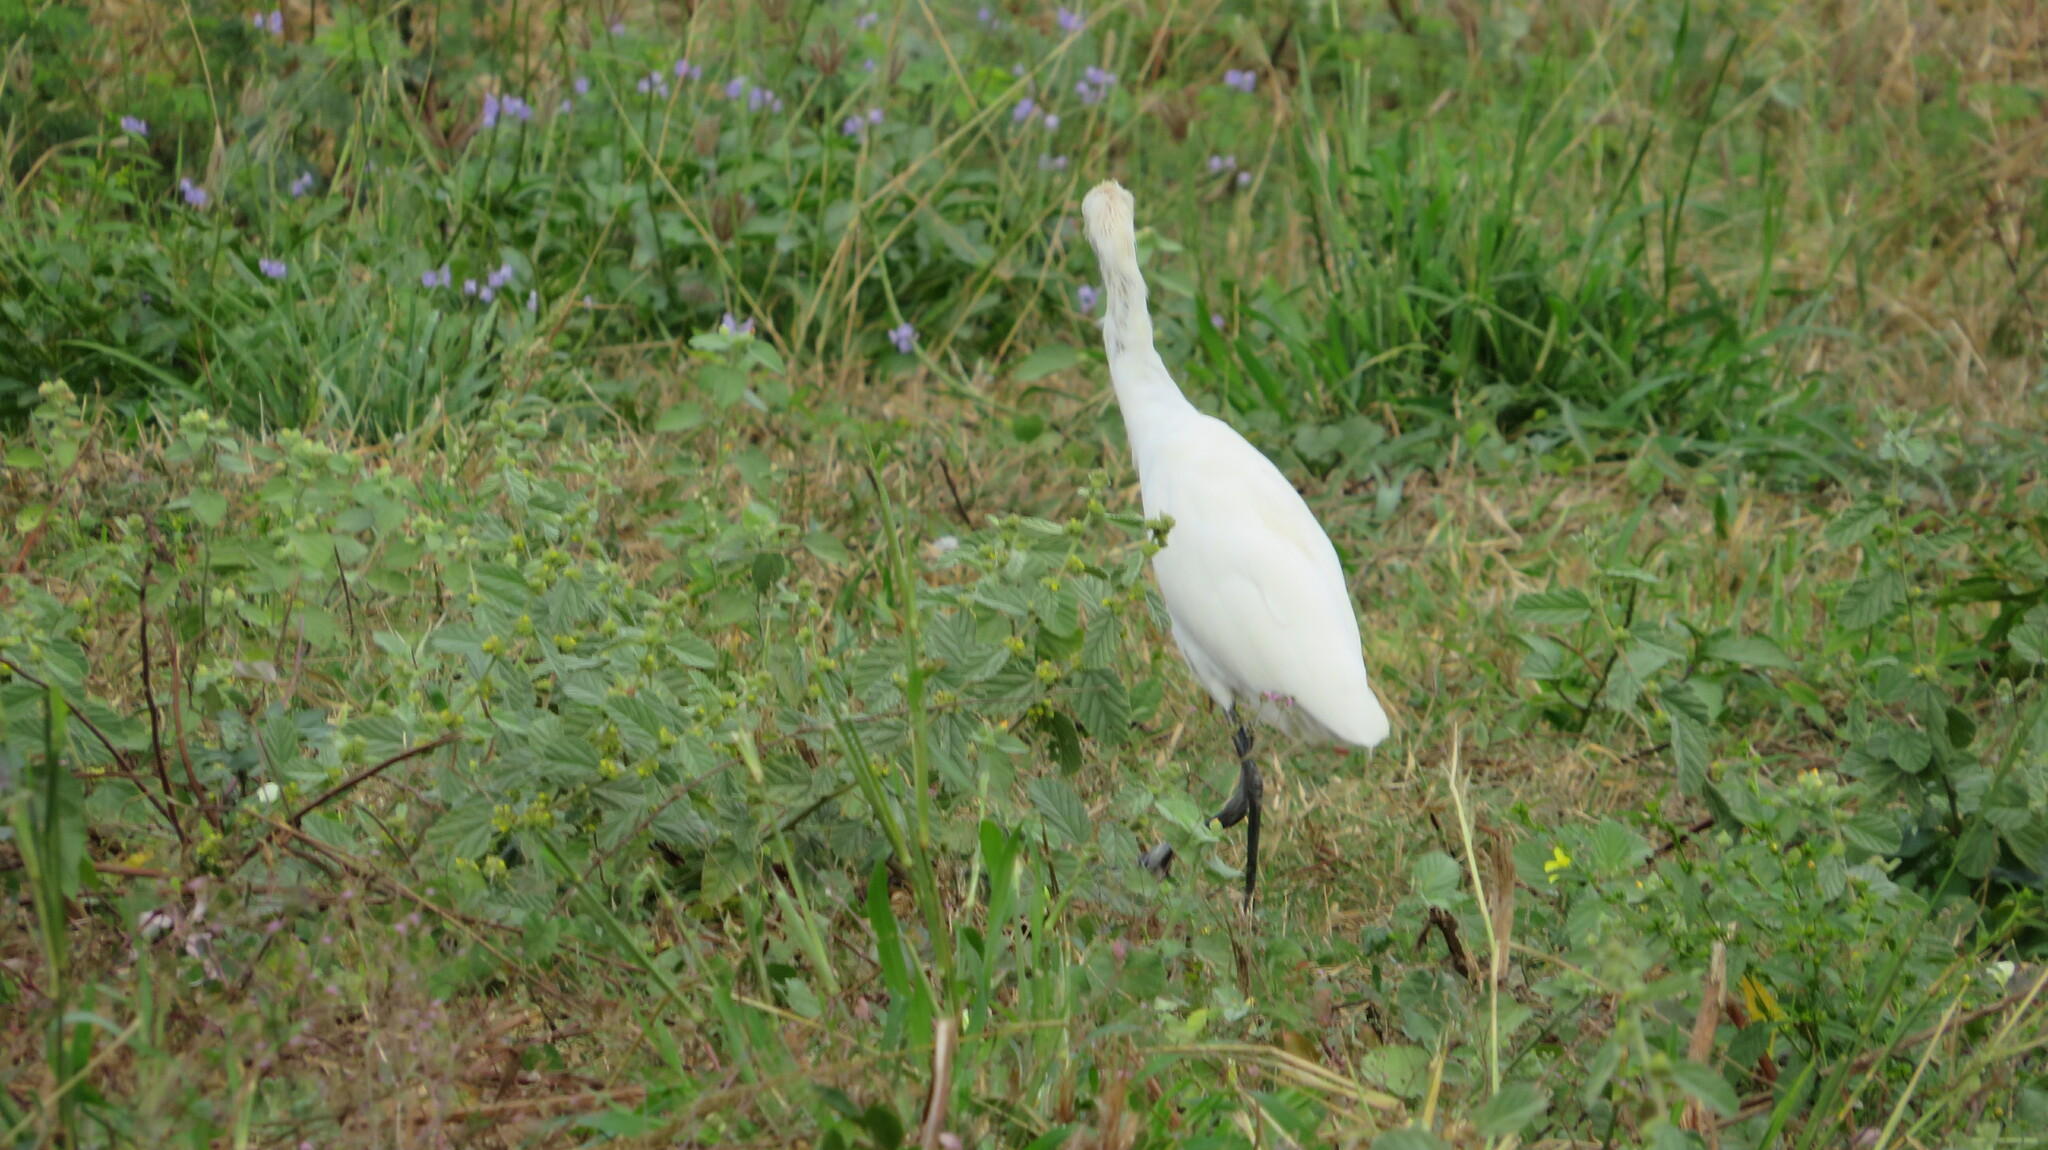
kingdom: Animalia
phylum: Chordata
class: Aves
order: Pelecaniformes
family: Ardeidae
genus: Bubulcus
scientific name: Bubulcus coromandus
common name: Eastern cattle egret
